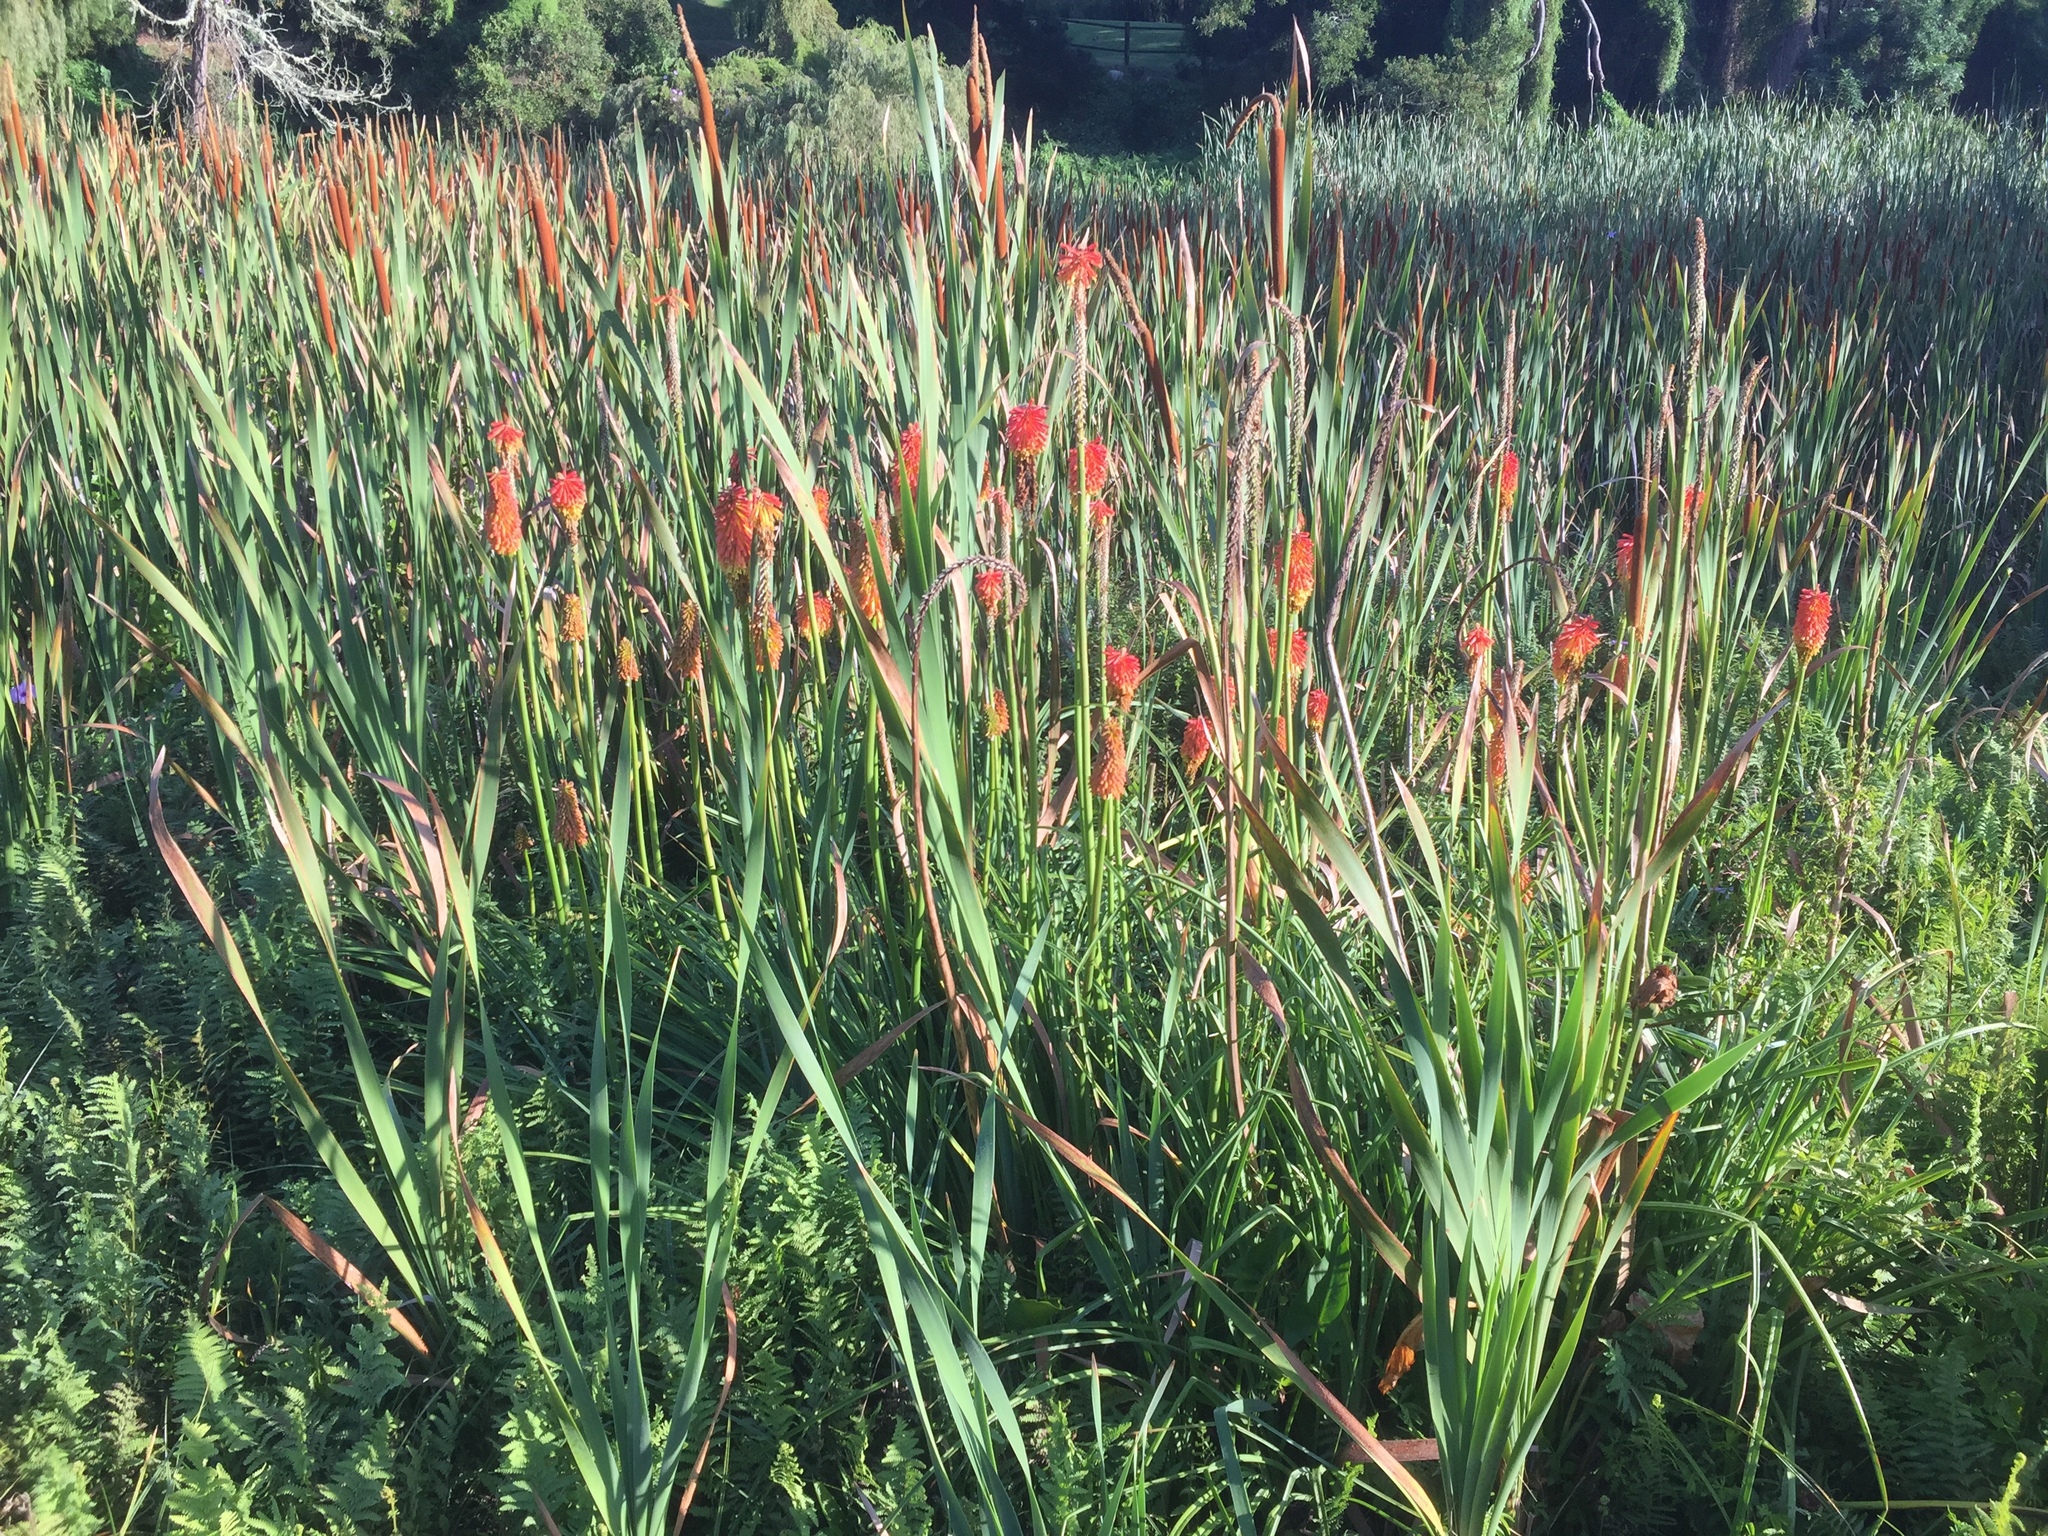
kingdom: Plantae
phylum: Tracheophyta
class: Liliopsida
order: Asparagales
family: Asphodelaceae
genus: Kniphofia
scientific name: Kniphofia uvaria
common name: Red-hot-poker
